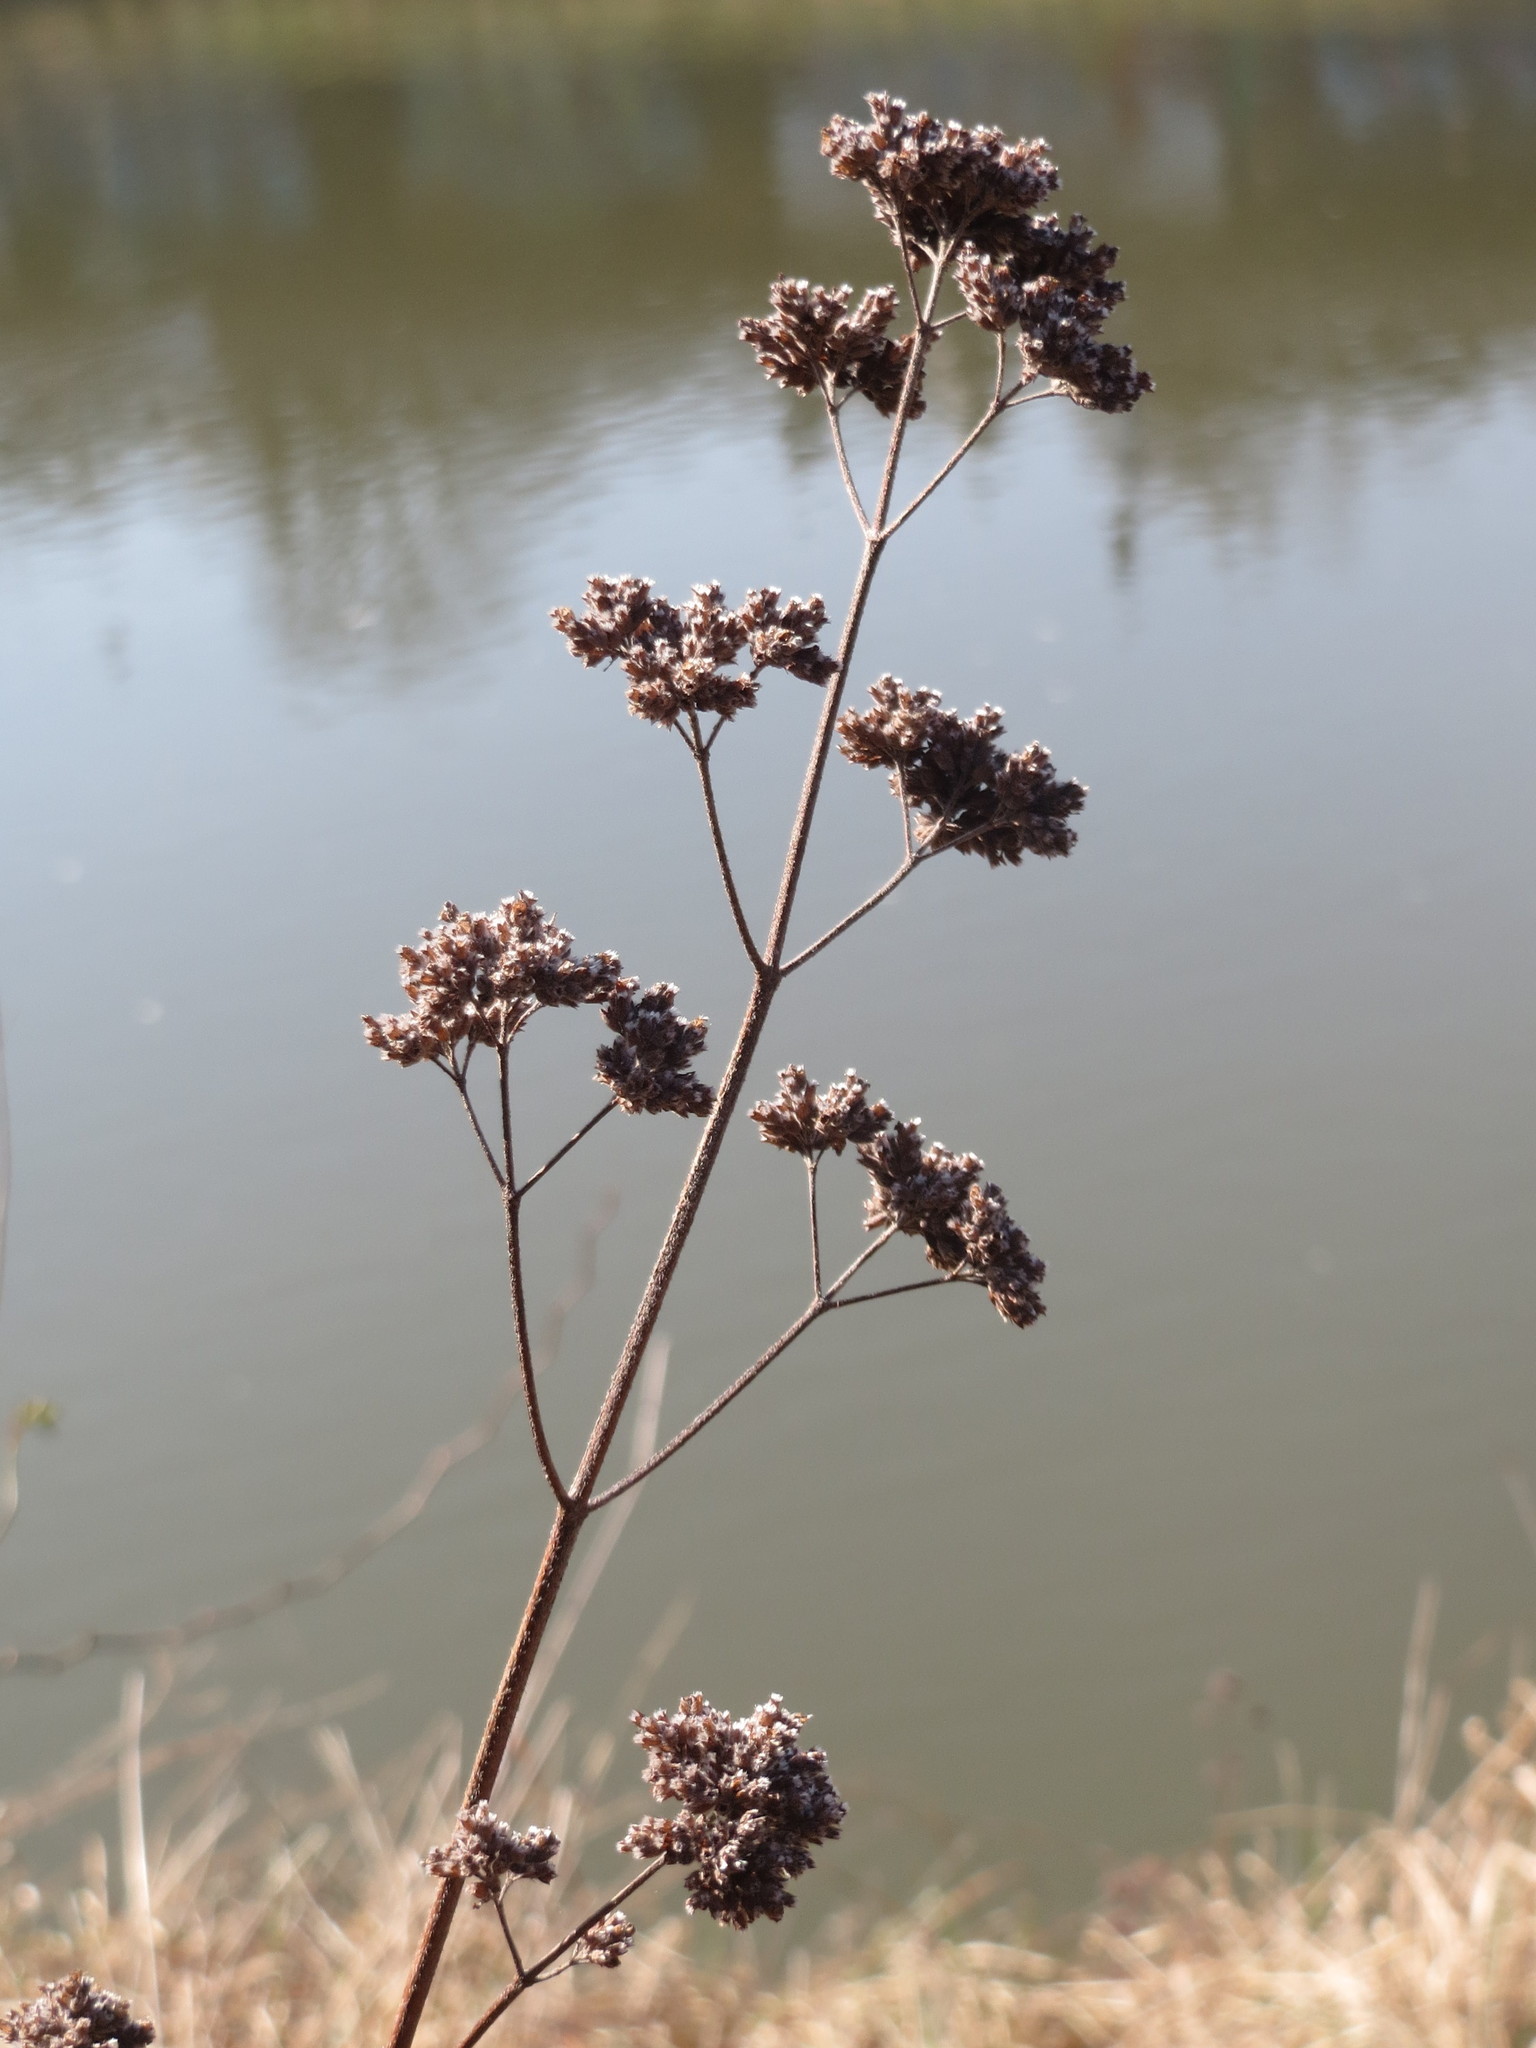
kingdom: Plantae
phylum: Tracheophyta
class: Magnoliopsida
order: Lamiales
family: Lamiaceae
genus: Origanum
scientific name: Origanum vulgare
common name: Wild marjoram
